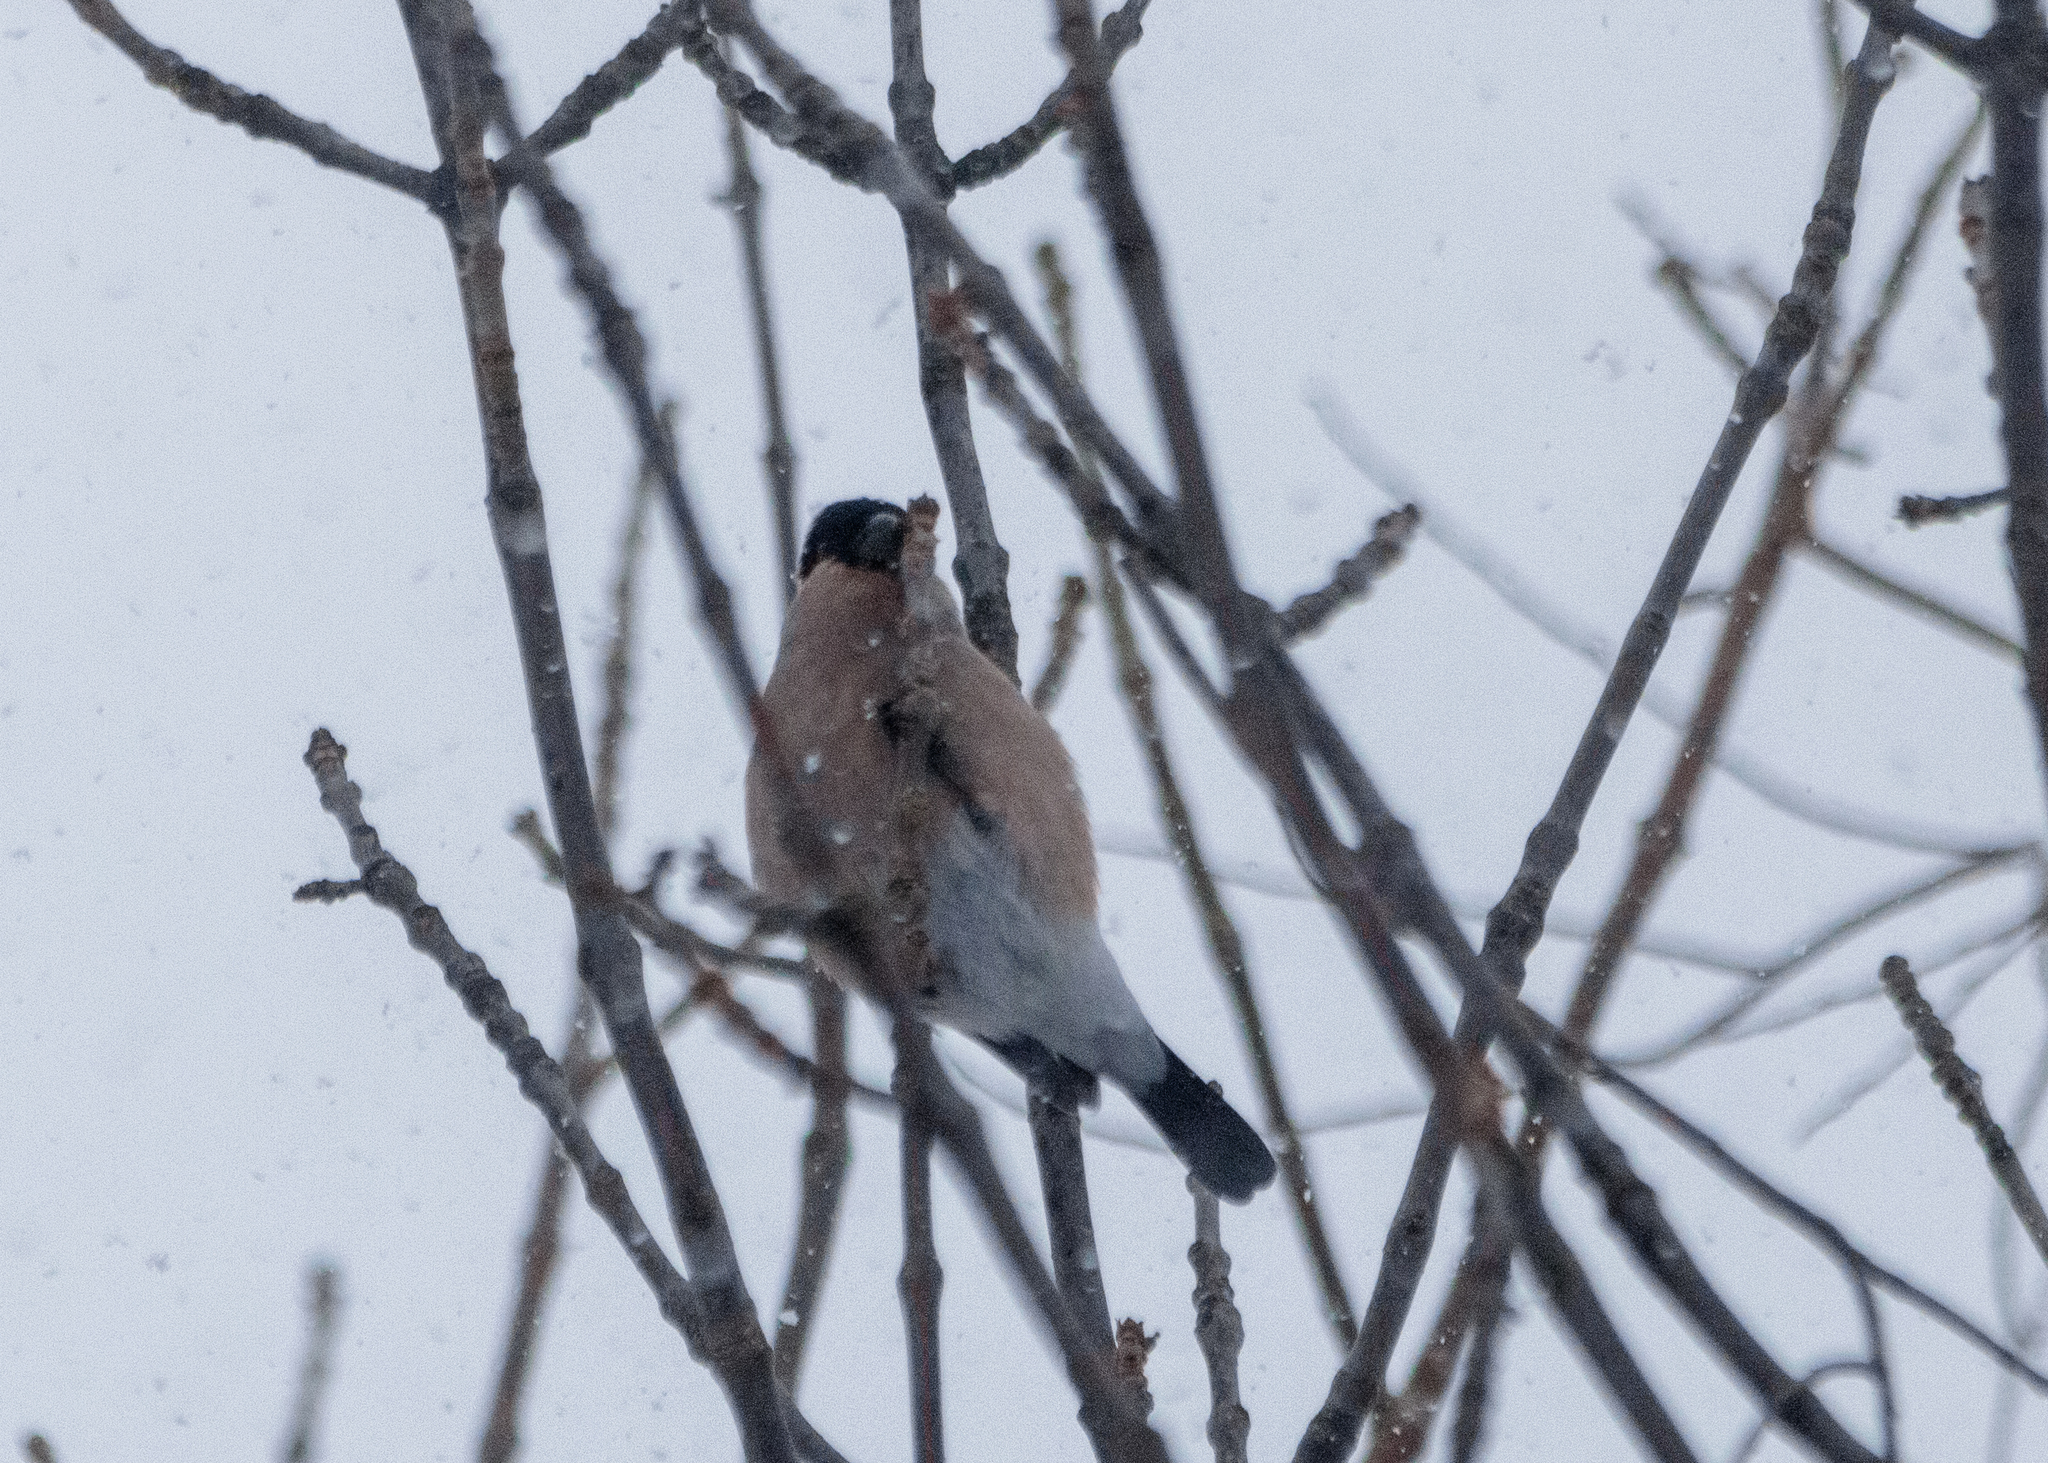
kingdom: Animalia
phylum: Chordata
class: Aves
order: Passeriformes
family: Fringillidae
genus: Pyrrhula
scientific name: Pyrrhula pyrrhula
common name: Eurasian bullfinch
